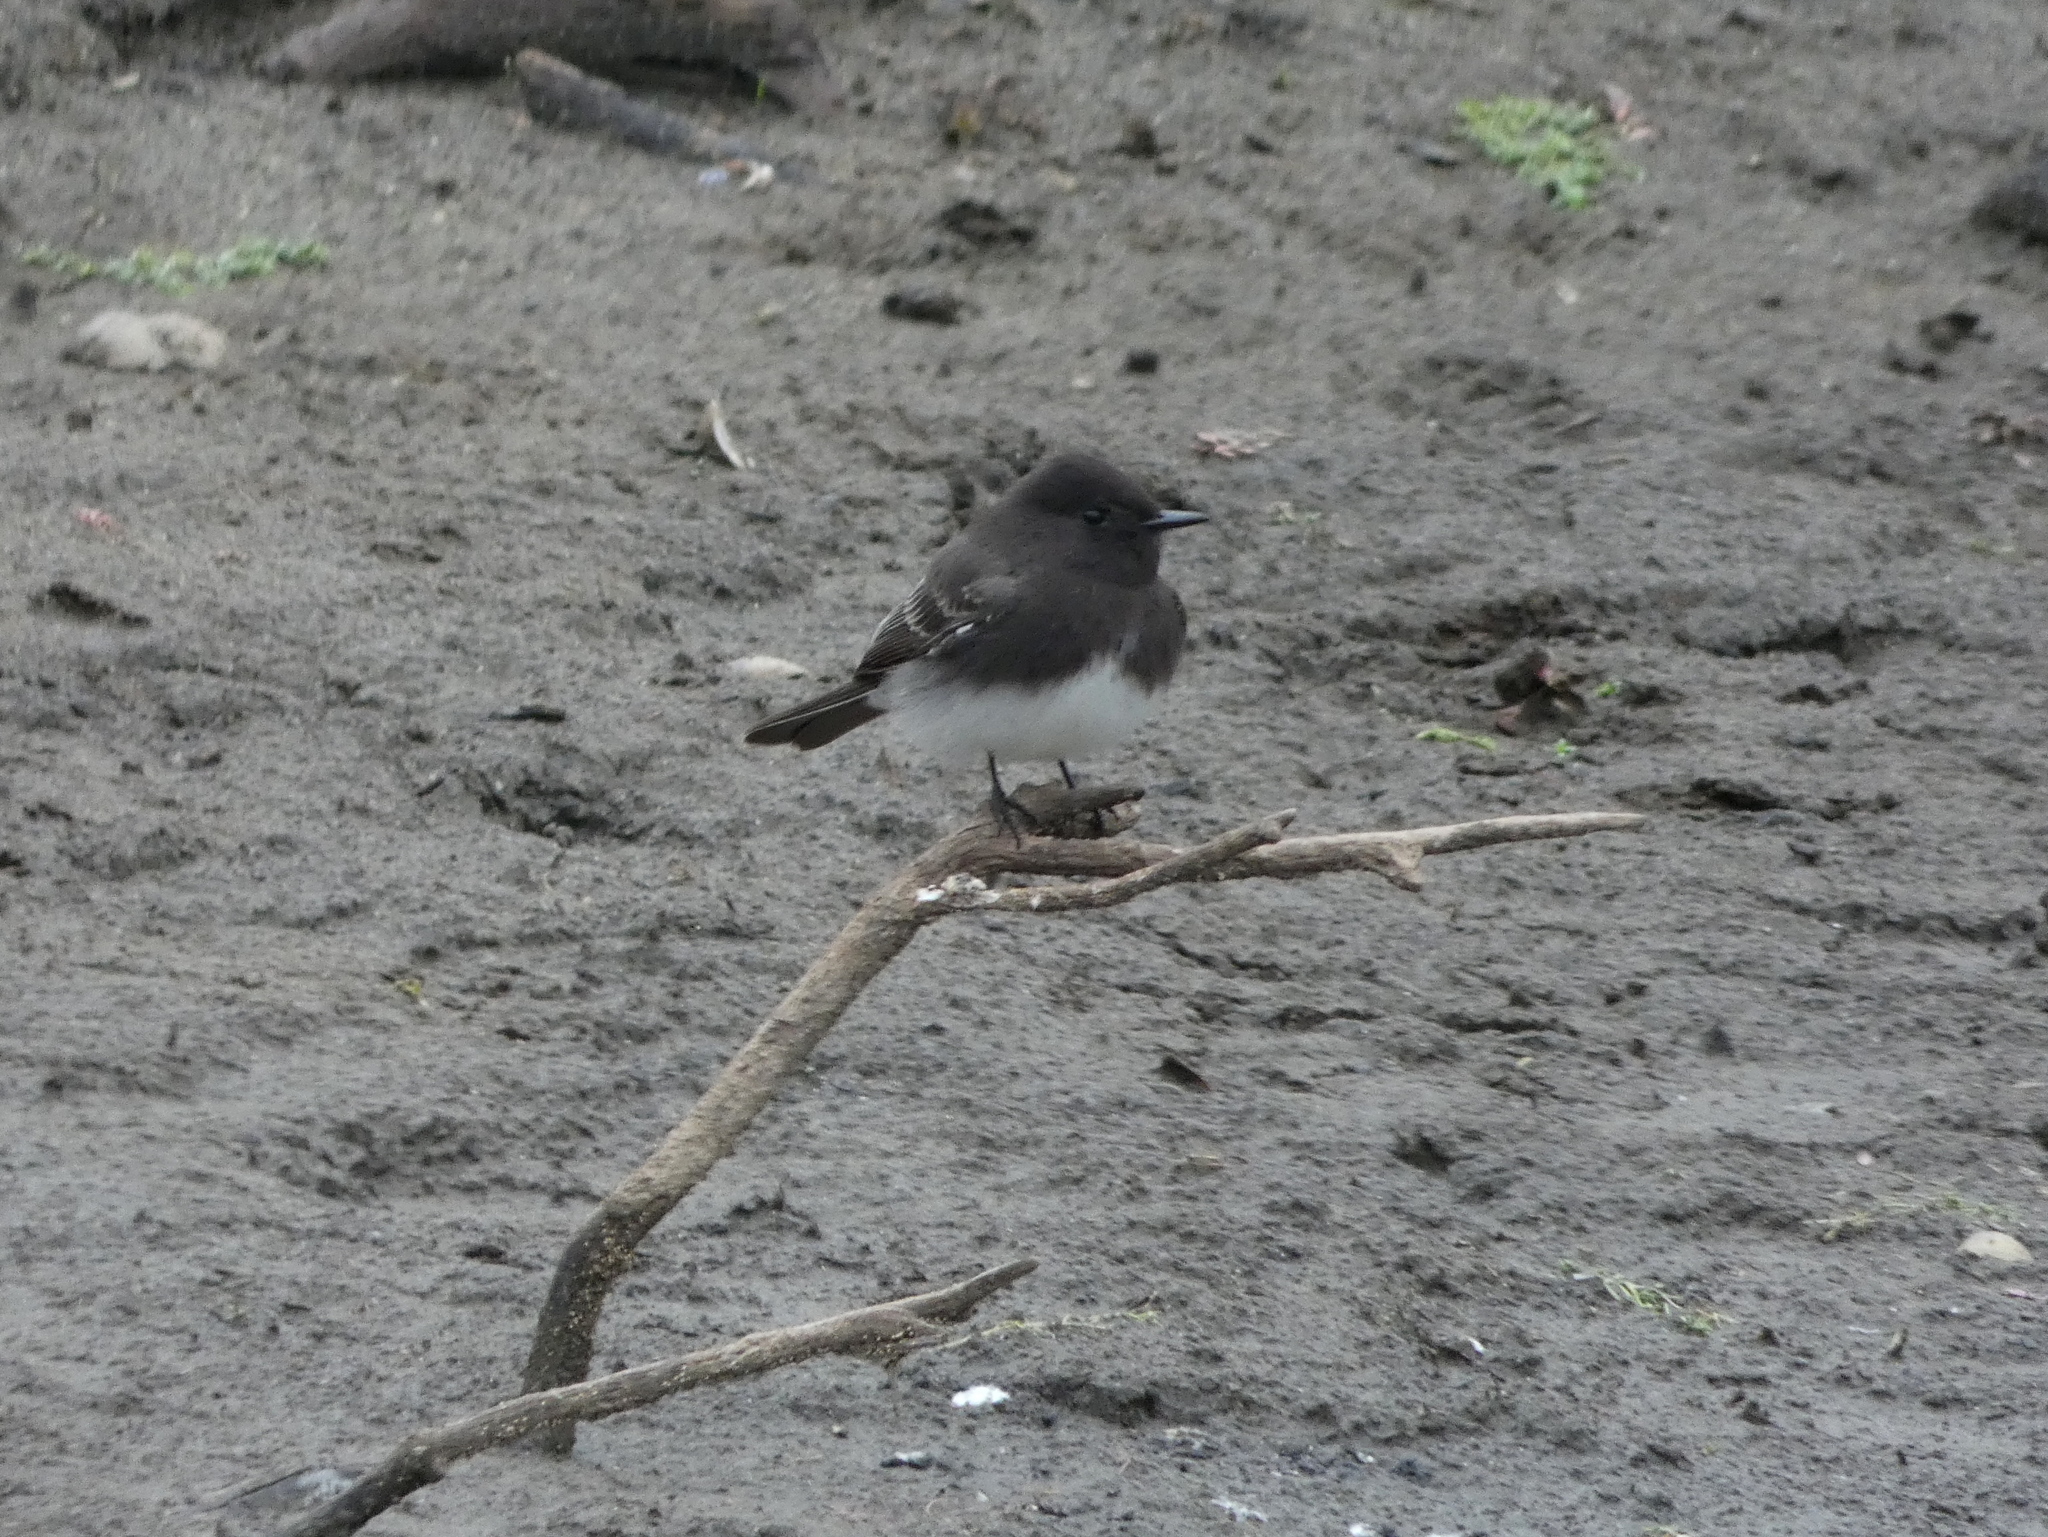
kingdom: Animalia
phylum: Chordata
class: Aves
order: Passeriformes
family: Tyrannidae
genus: Sayornis
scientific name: Sayornis nigricans
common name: Black phoebe
